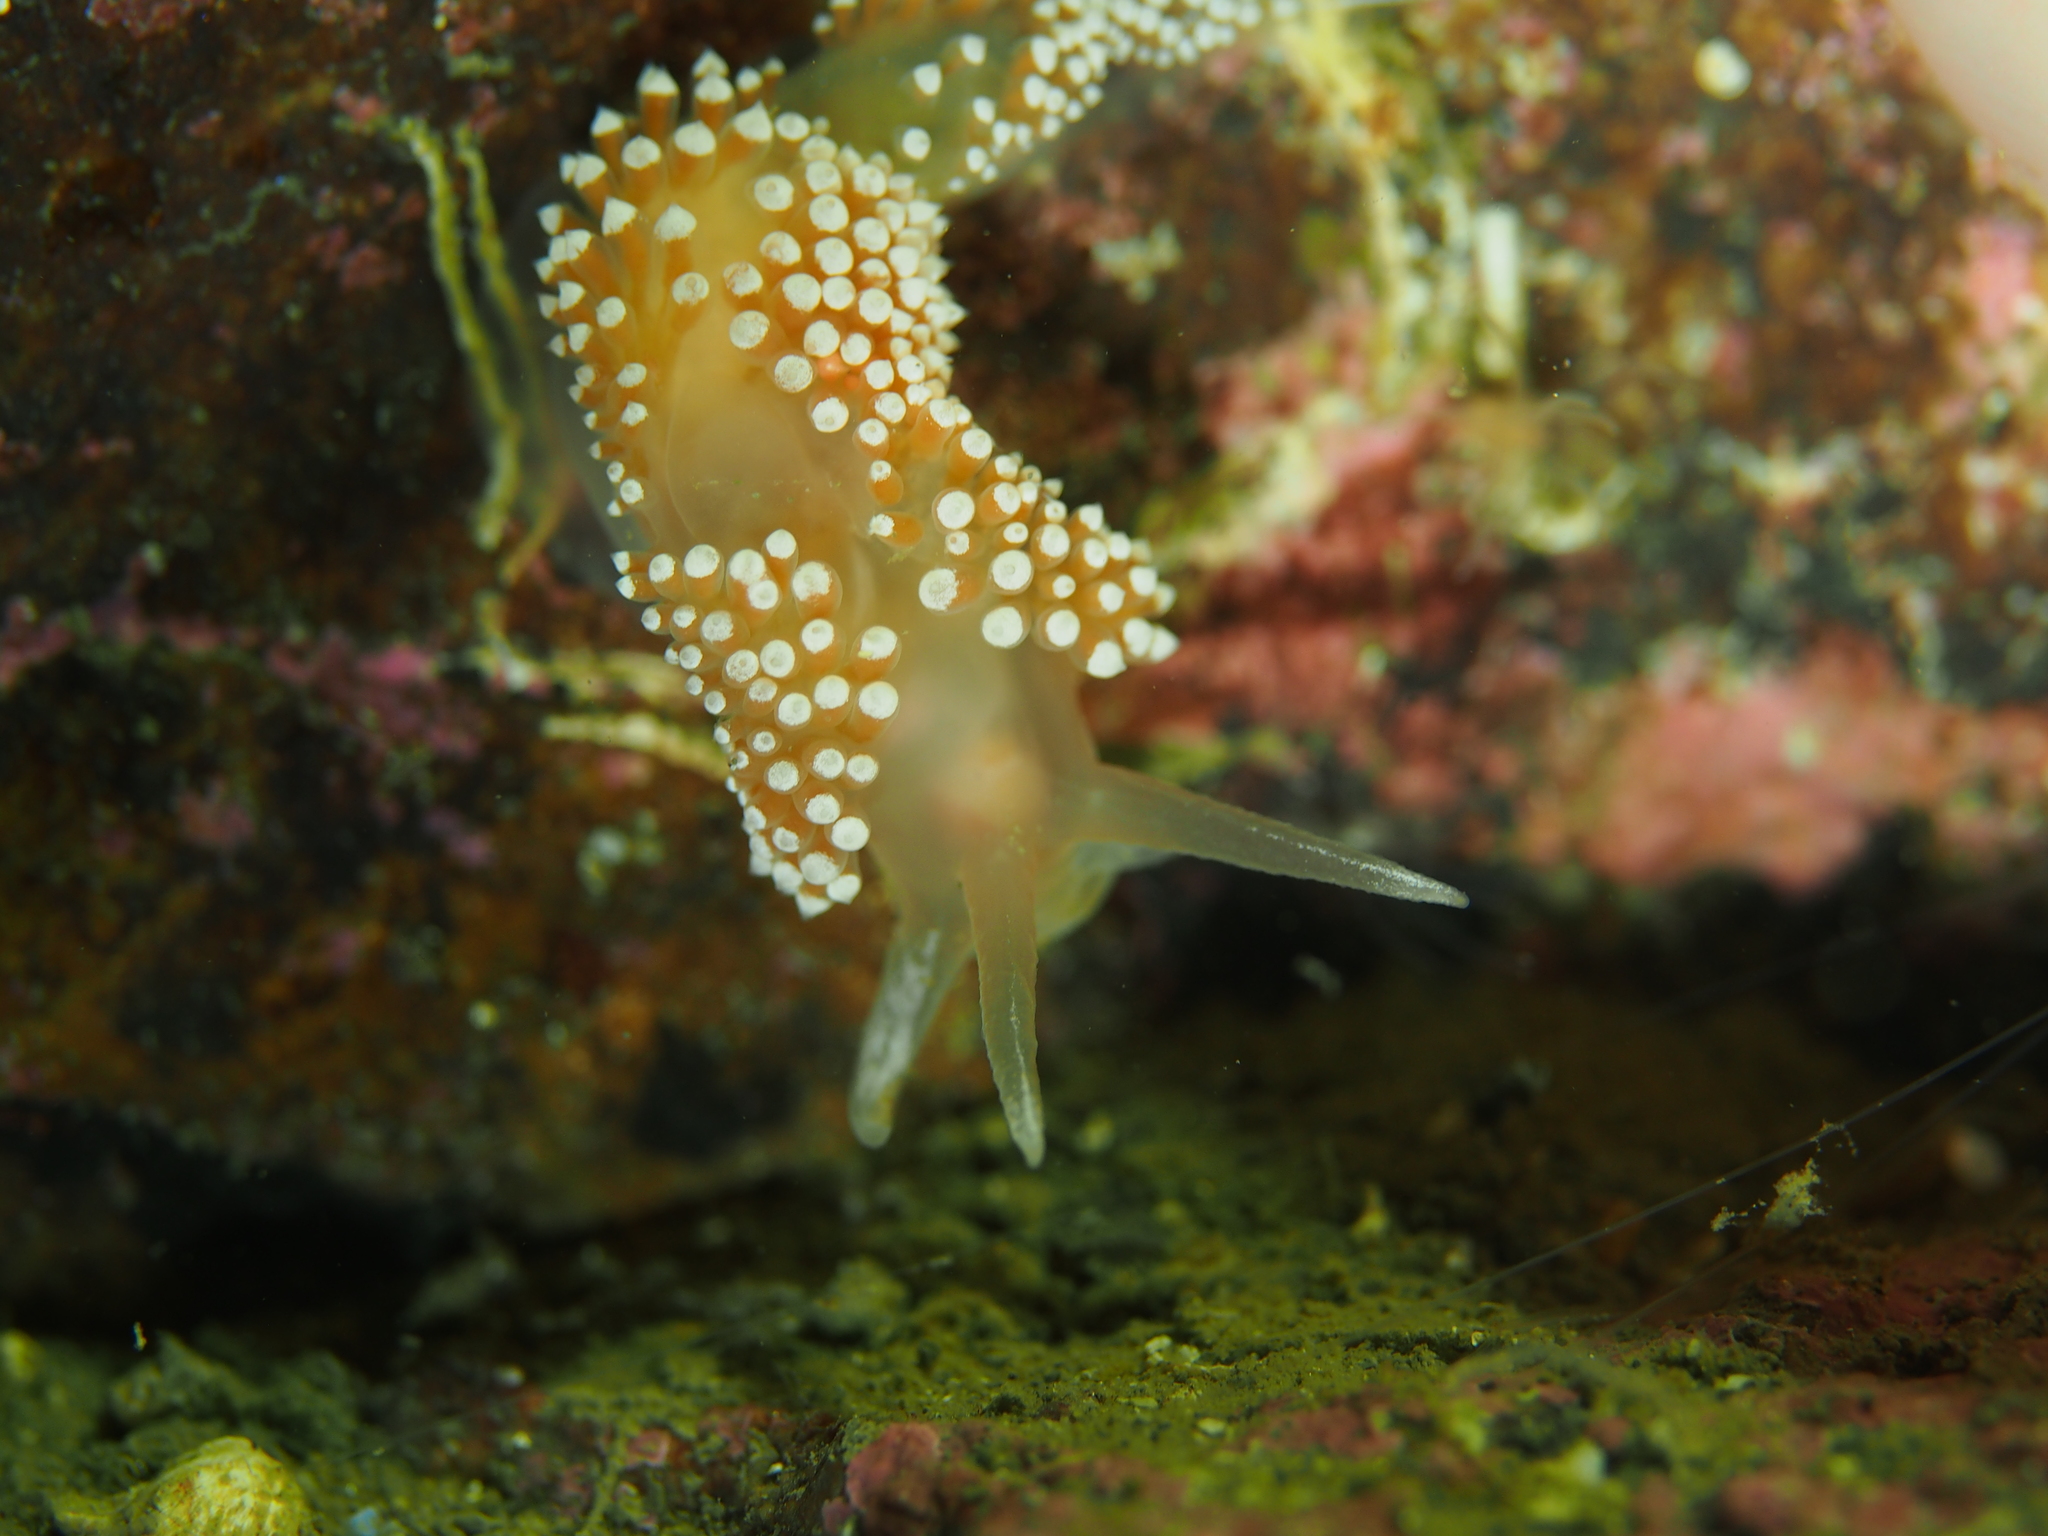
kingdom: Animalia
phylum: Mollusca
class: Gastropoda
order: Nudibranchia
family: Coryphellidae
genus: Coryphella
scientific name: Coryphella verrucosa
